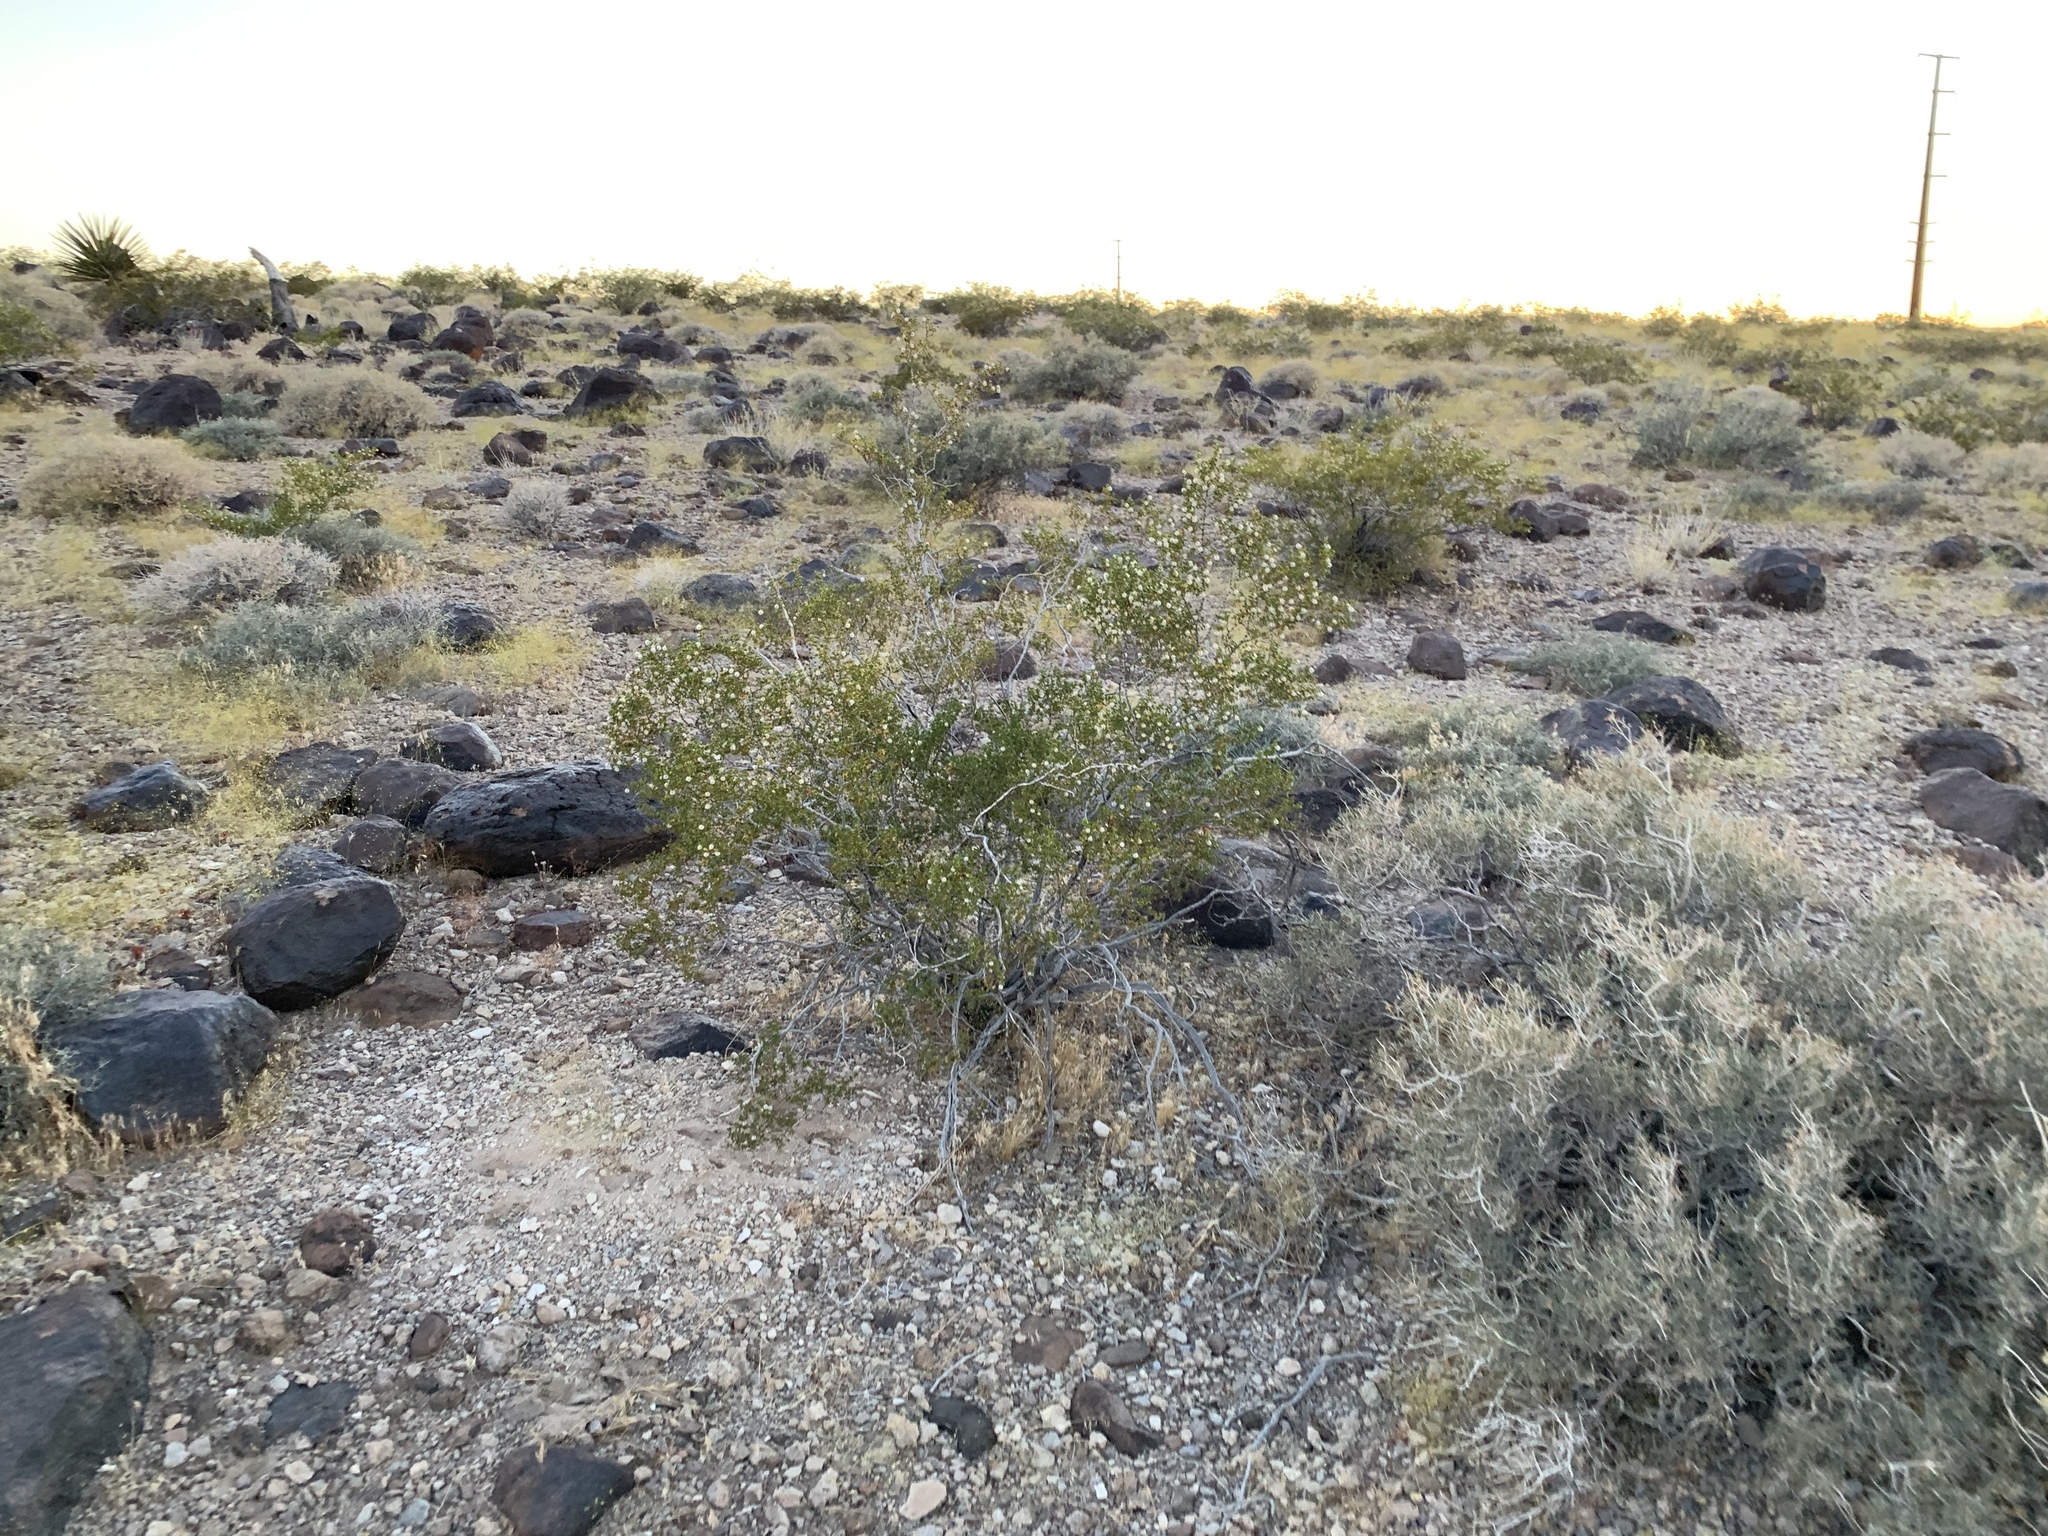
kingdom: Plantae
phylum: Tracheophyta
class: Magnoliopsida
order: Zygophyllales
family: Zygophyllaceae
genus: Larrea
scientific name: Larrea tridentata
